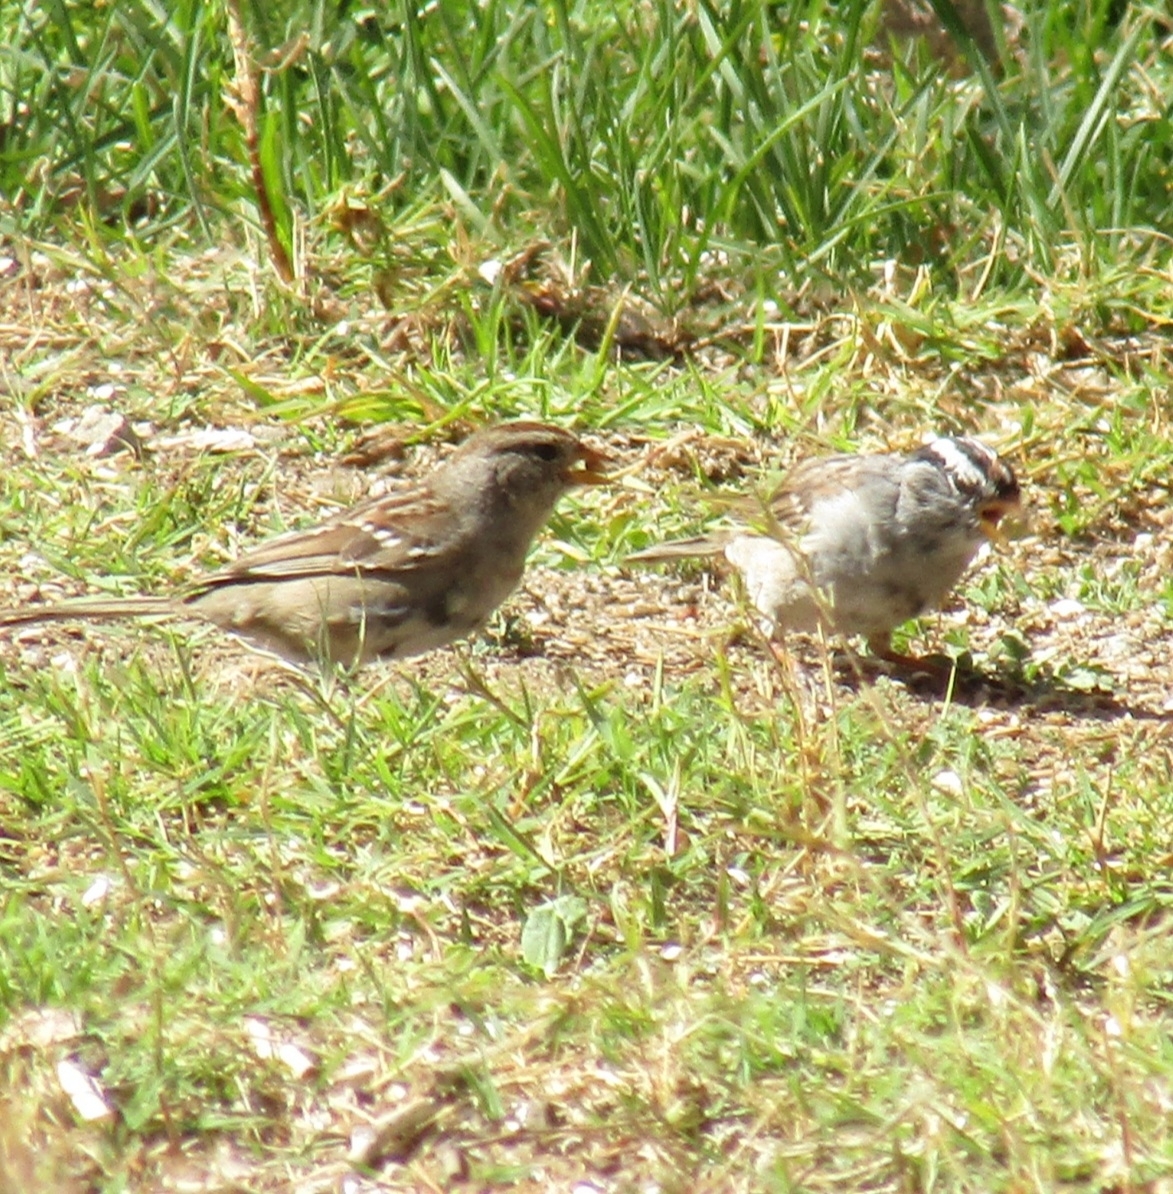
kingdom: Animalia
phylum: Chordata
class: Aves
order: Passeriformes
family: Passerellidae
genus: Zonotrichia
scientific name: Zonotrichia leucophrys
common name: White-crowned sparrow
